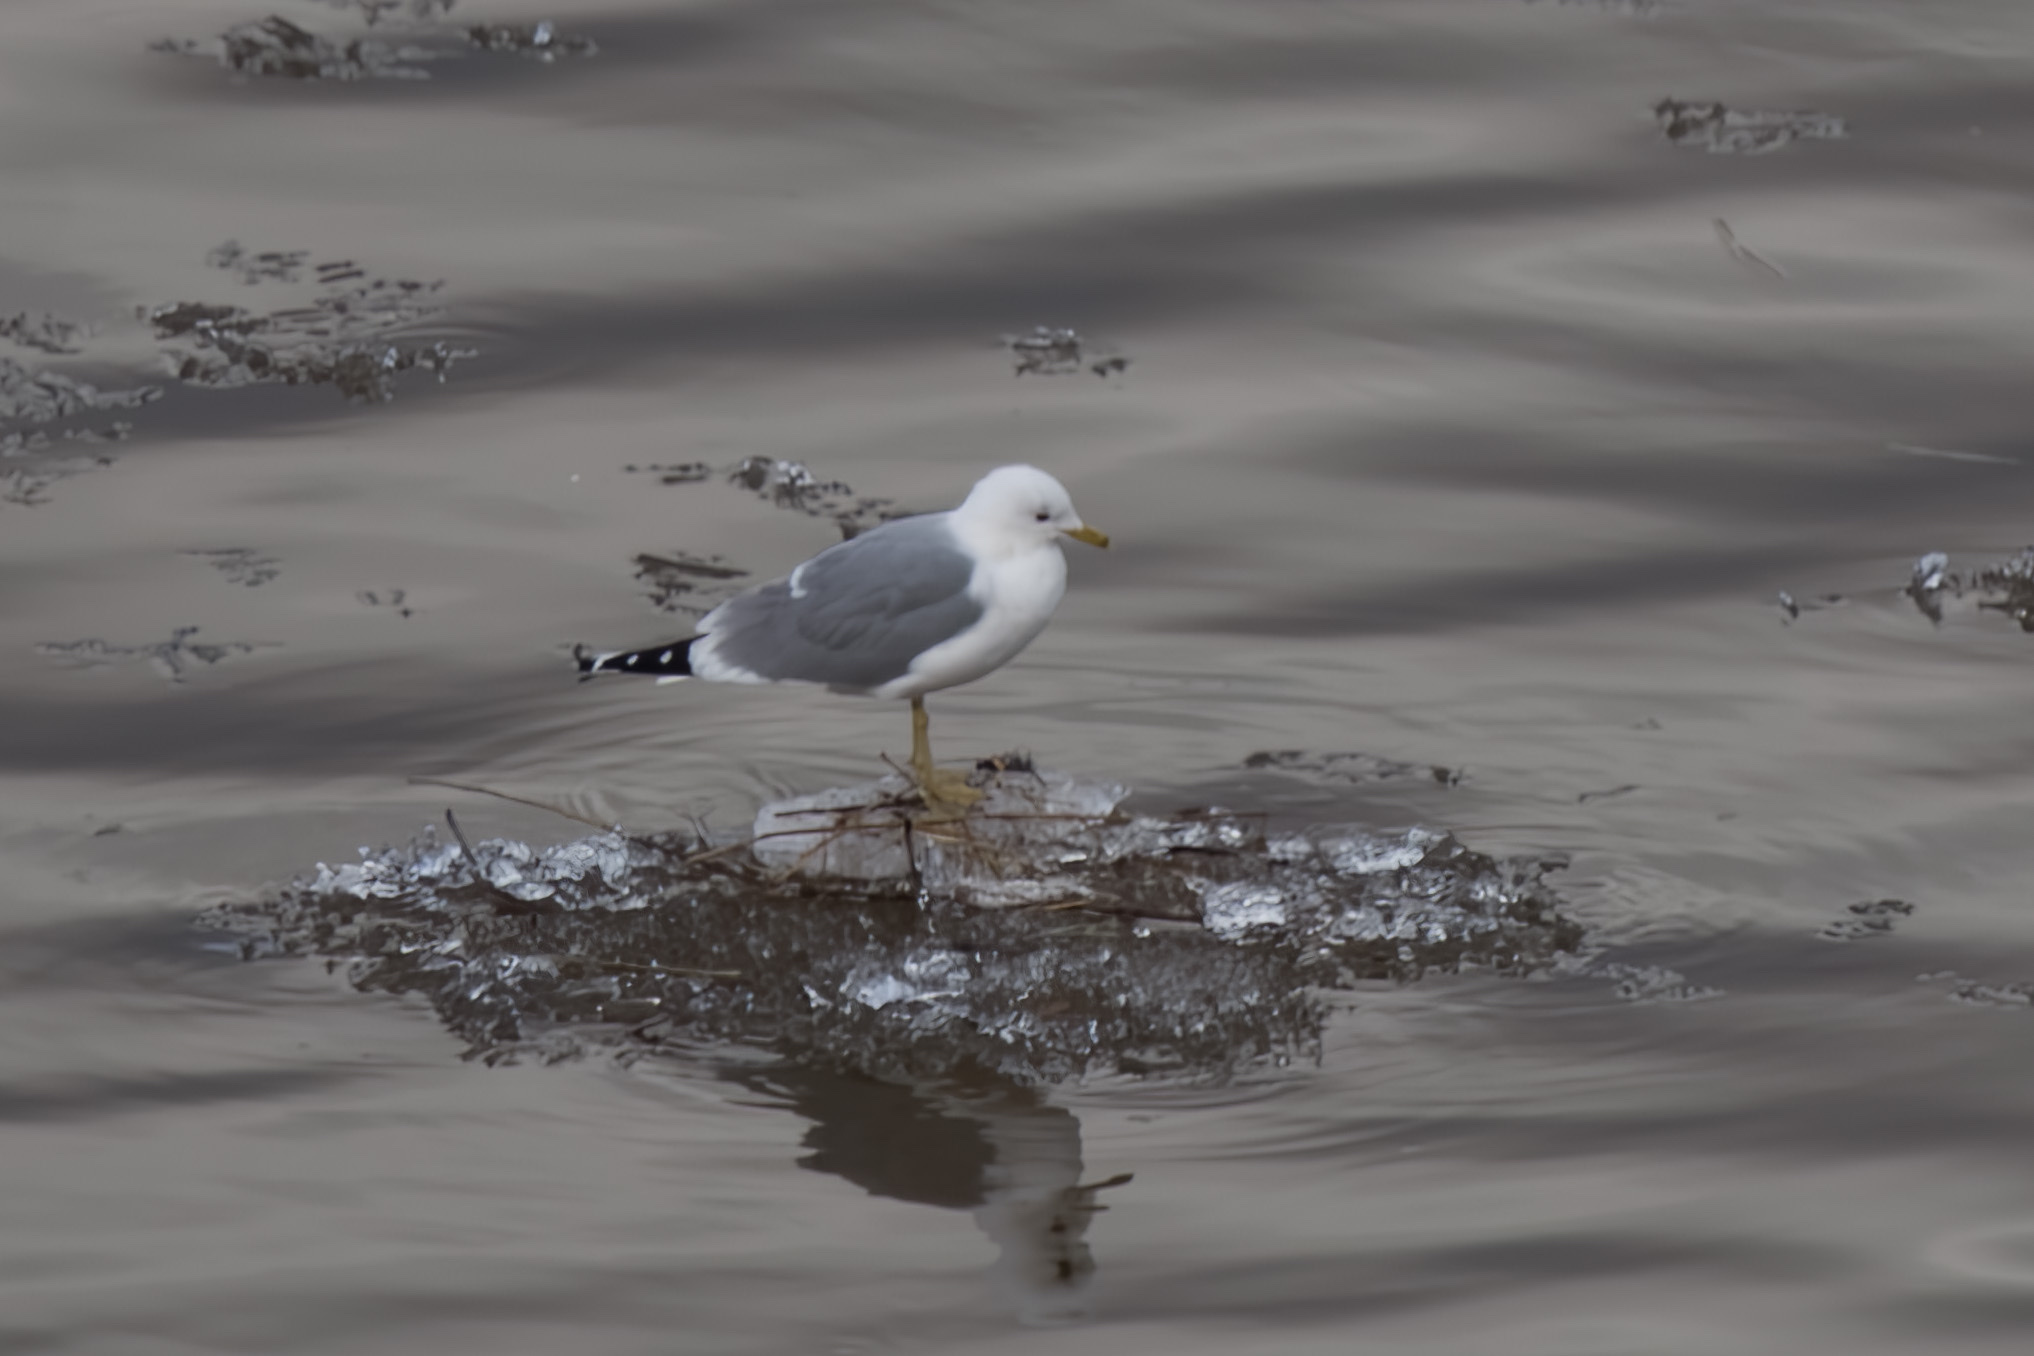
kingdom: Animalia
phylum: Chordata
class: Aves
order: Charadriiformes
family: Laridae
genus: Larus
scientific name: Larus canus
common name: Mew gull
